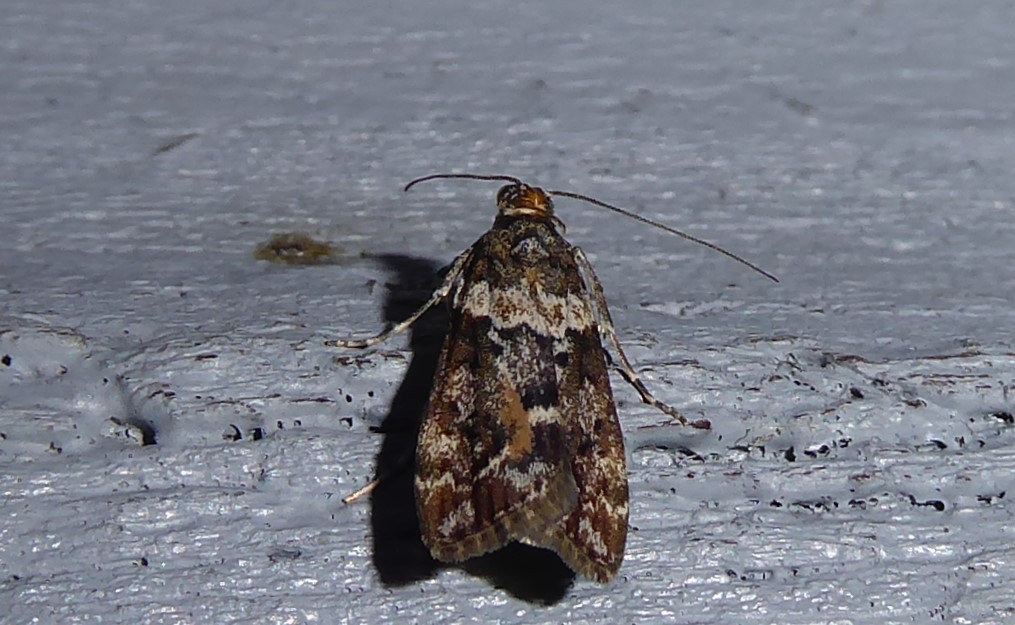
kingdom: Animalia
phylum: Arthropoda
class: Insecta
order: Lepidoptera
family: Crambidae
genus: Eudonia
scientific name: Eudonia submarginalis
